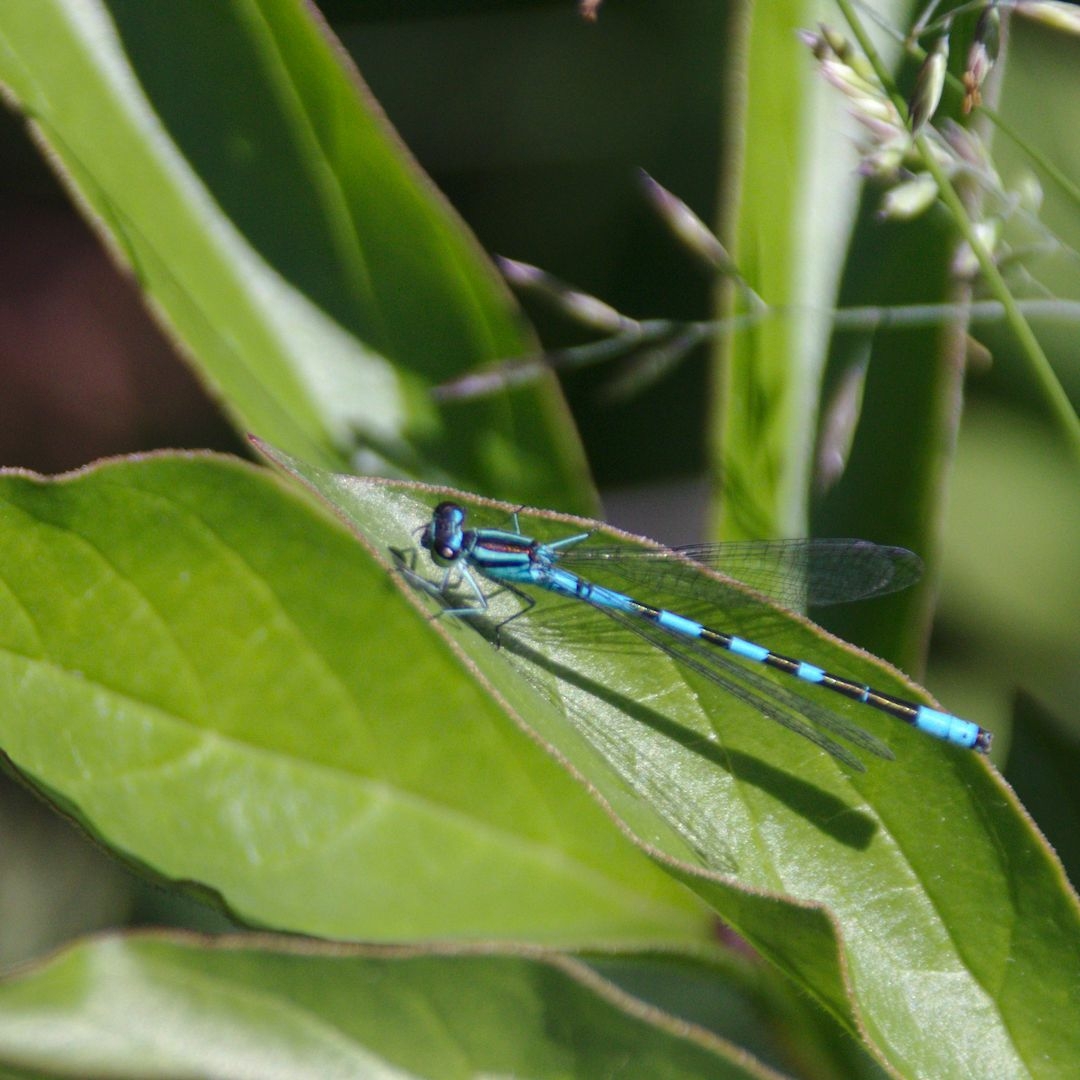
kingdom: Animalia
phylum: Arthropoda
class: Insecta
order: Odonata
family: Coenagrionidae
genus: Coenagrion
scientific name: Coenagrion hastulatum
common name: Spearhead bluet
